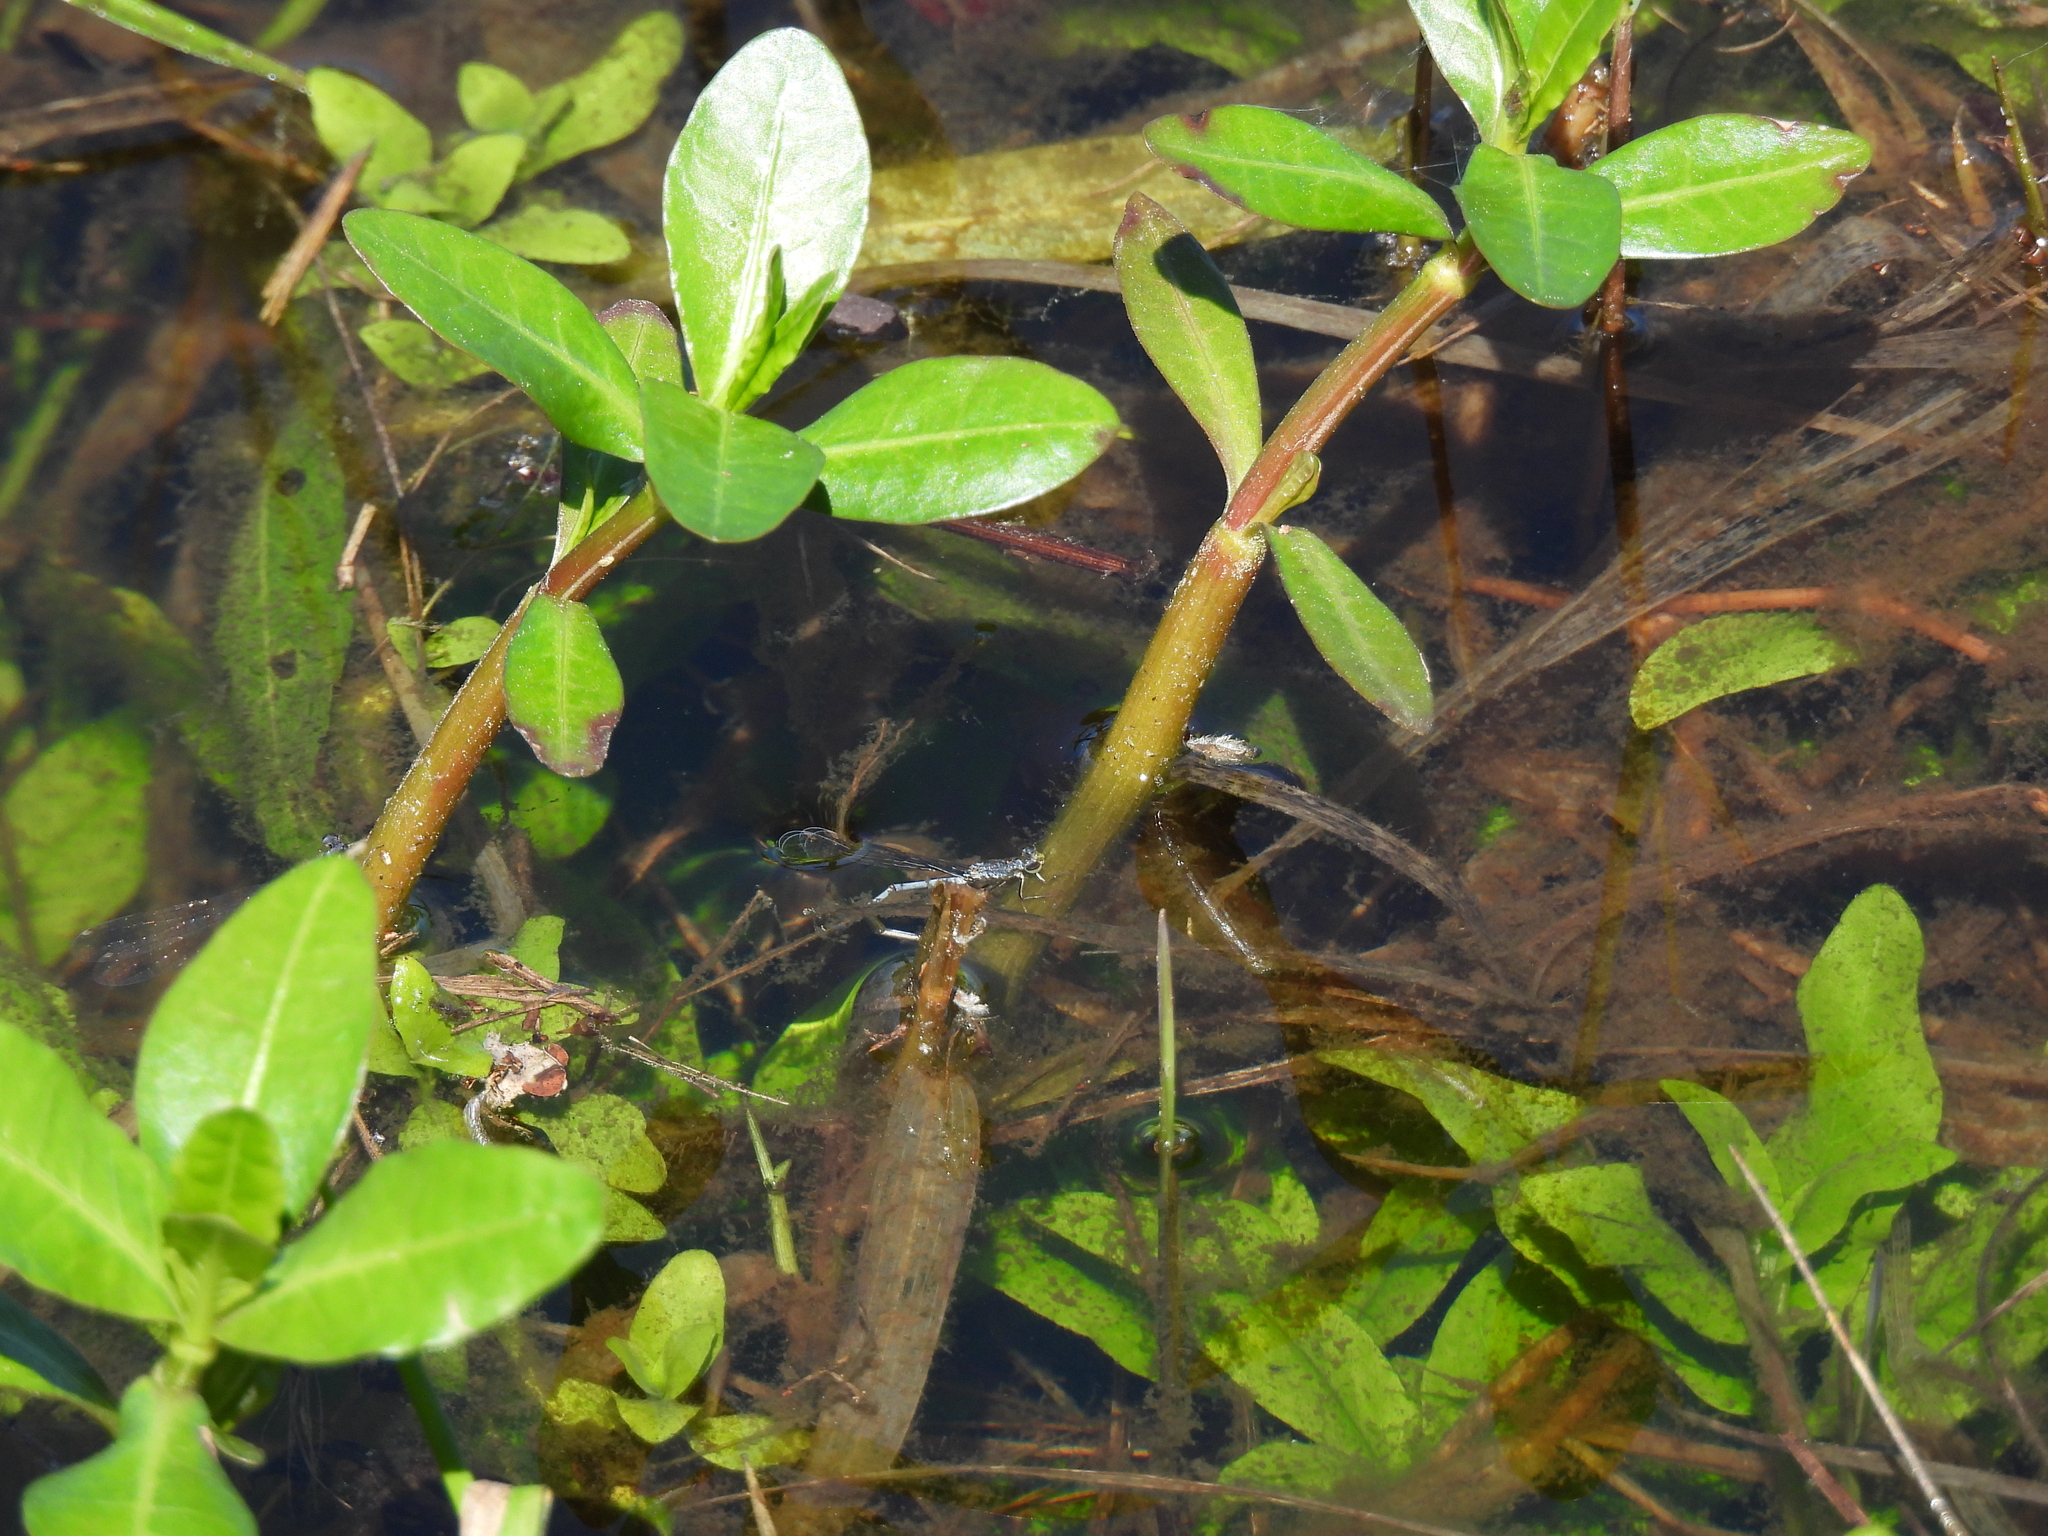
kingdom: Animalia
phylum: Arthropoda
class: Insecta
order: Odonata
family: Coenagrionidae
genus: Ischnura
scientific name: Ischnura posita
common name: Fragile forktail
